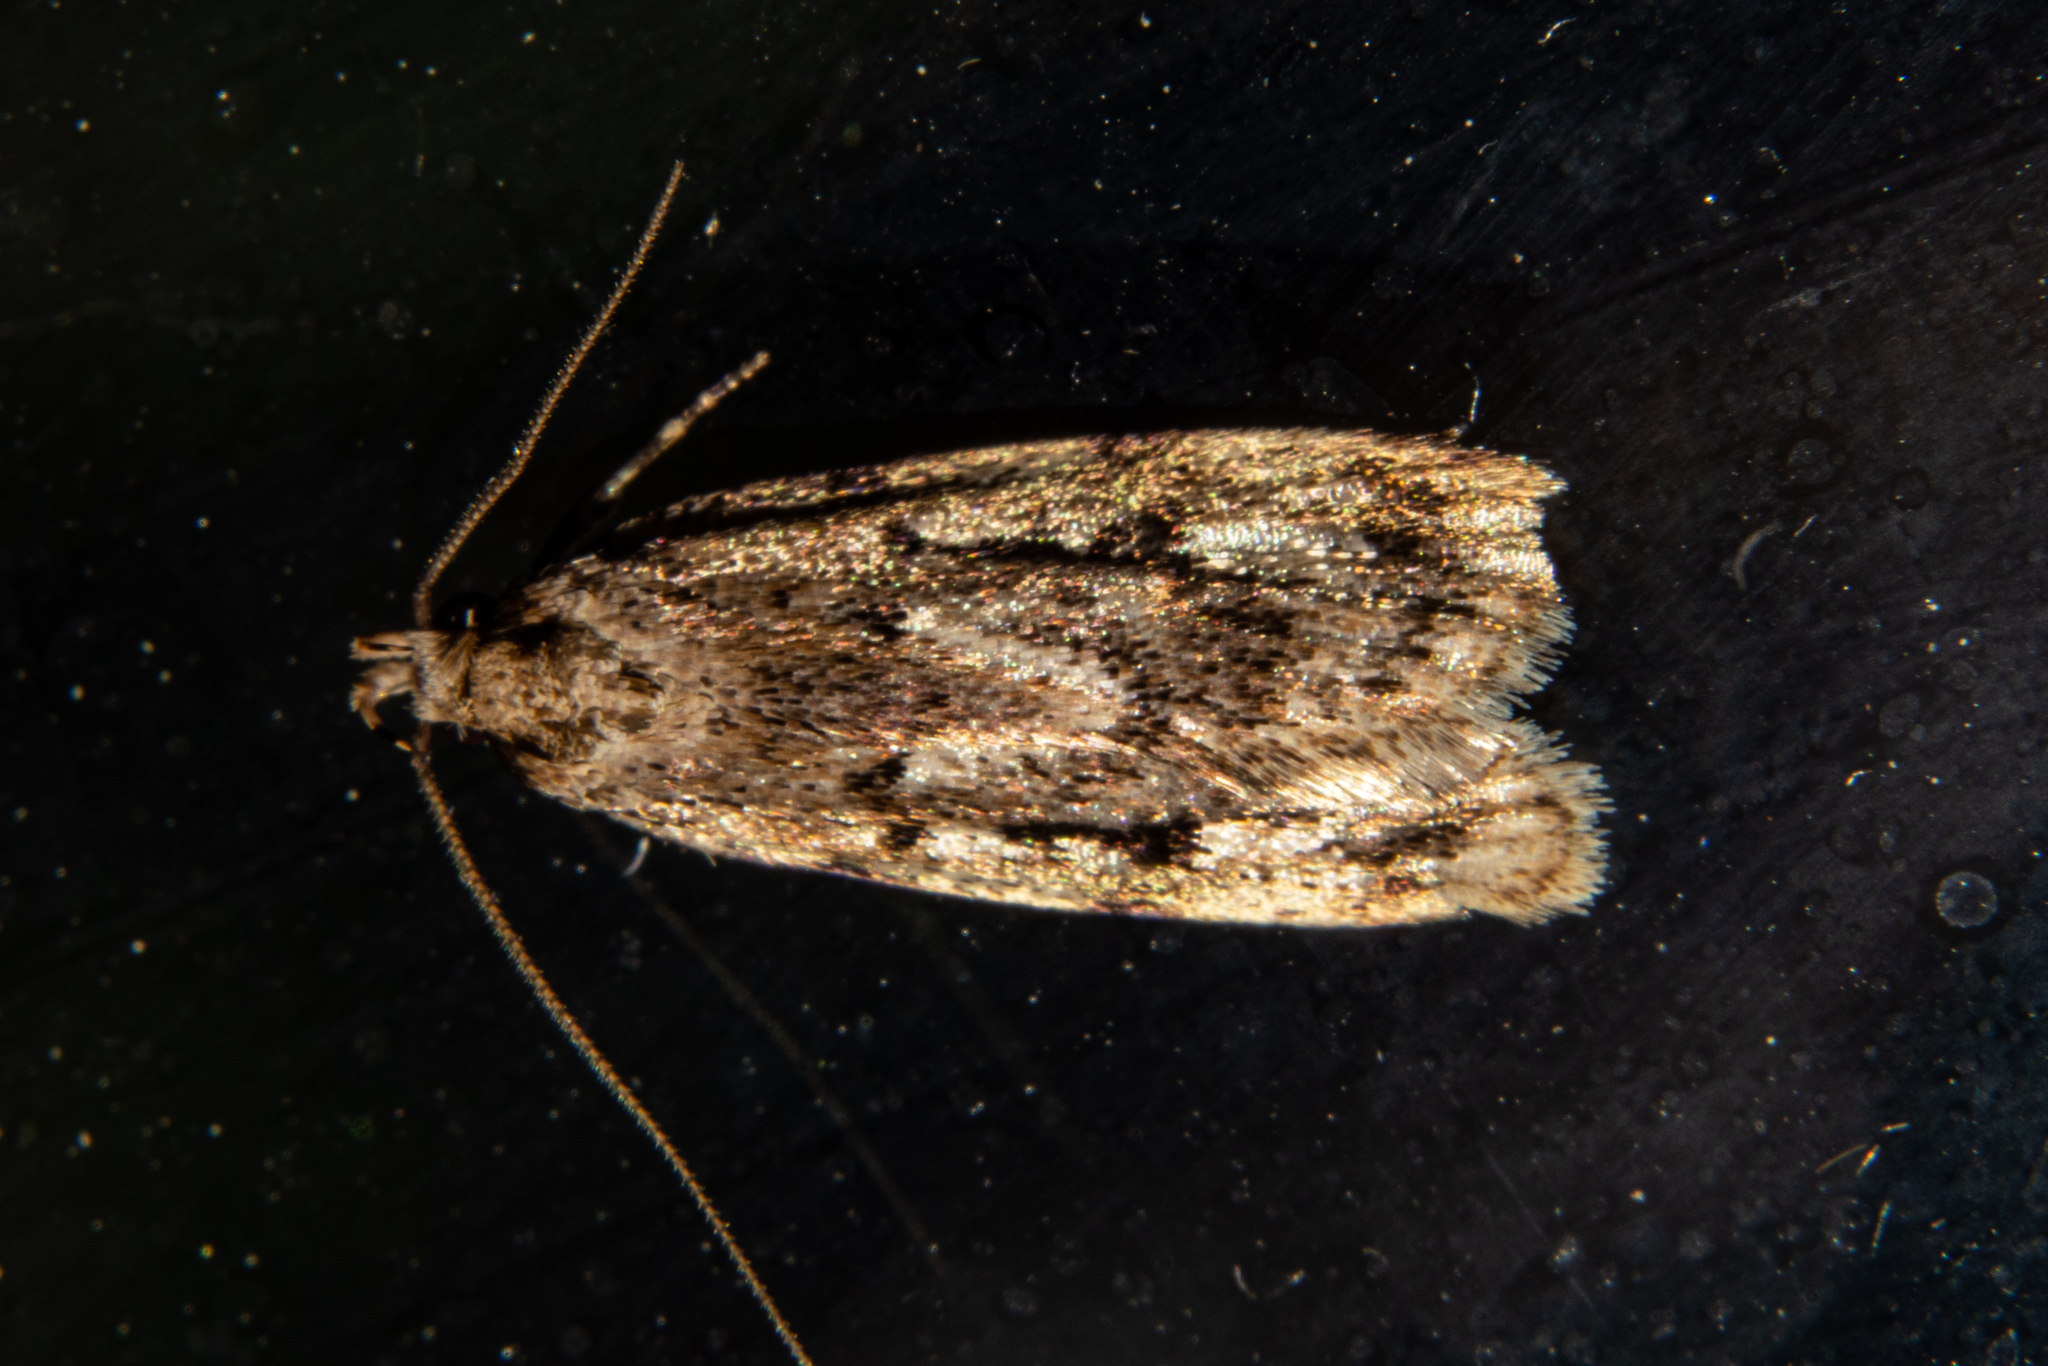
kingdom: Animalia
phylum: Arthropoda
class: Insecta
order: Lepidoptera
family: Oecophoridae
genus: Barea
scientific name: Barea exarcha
